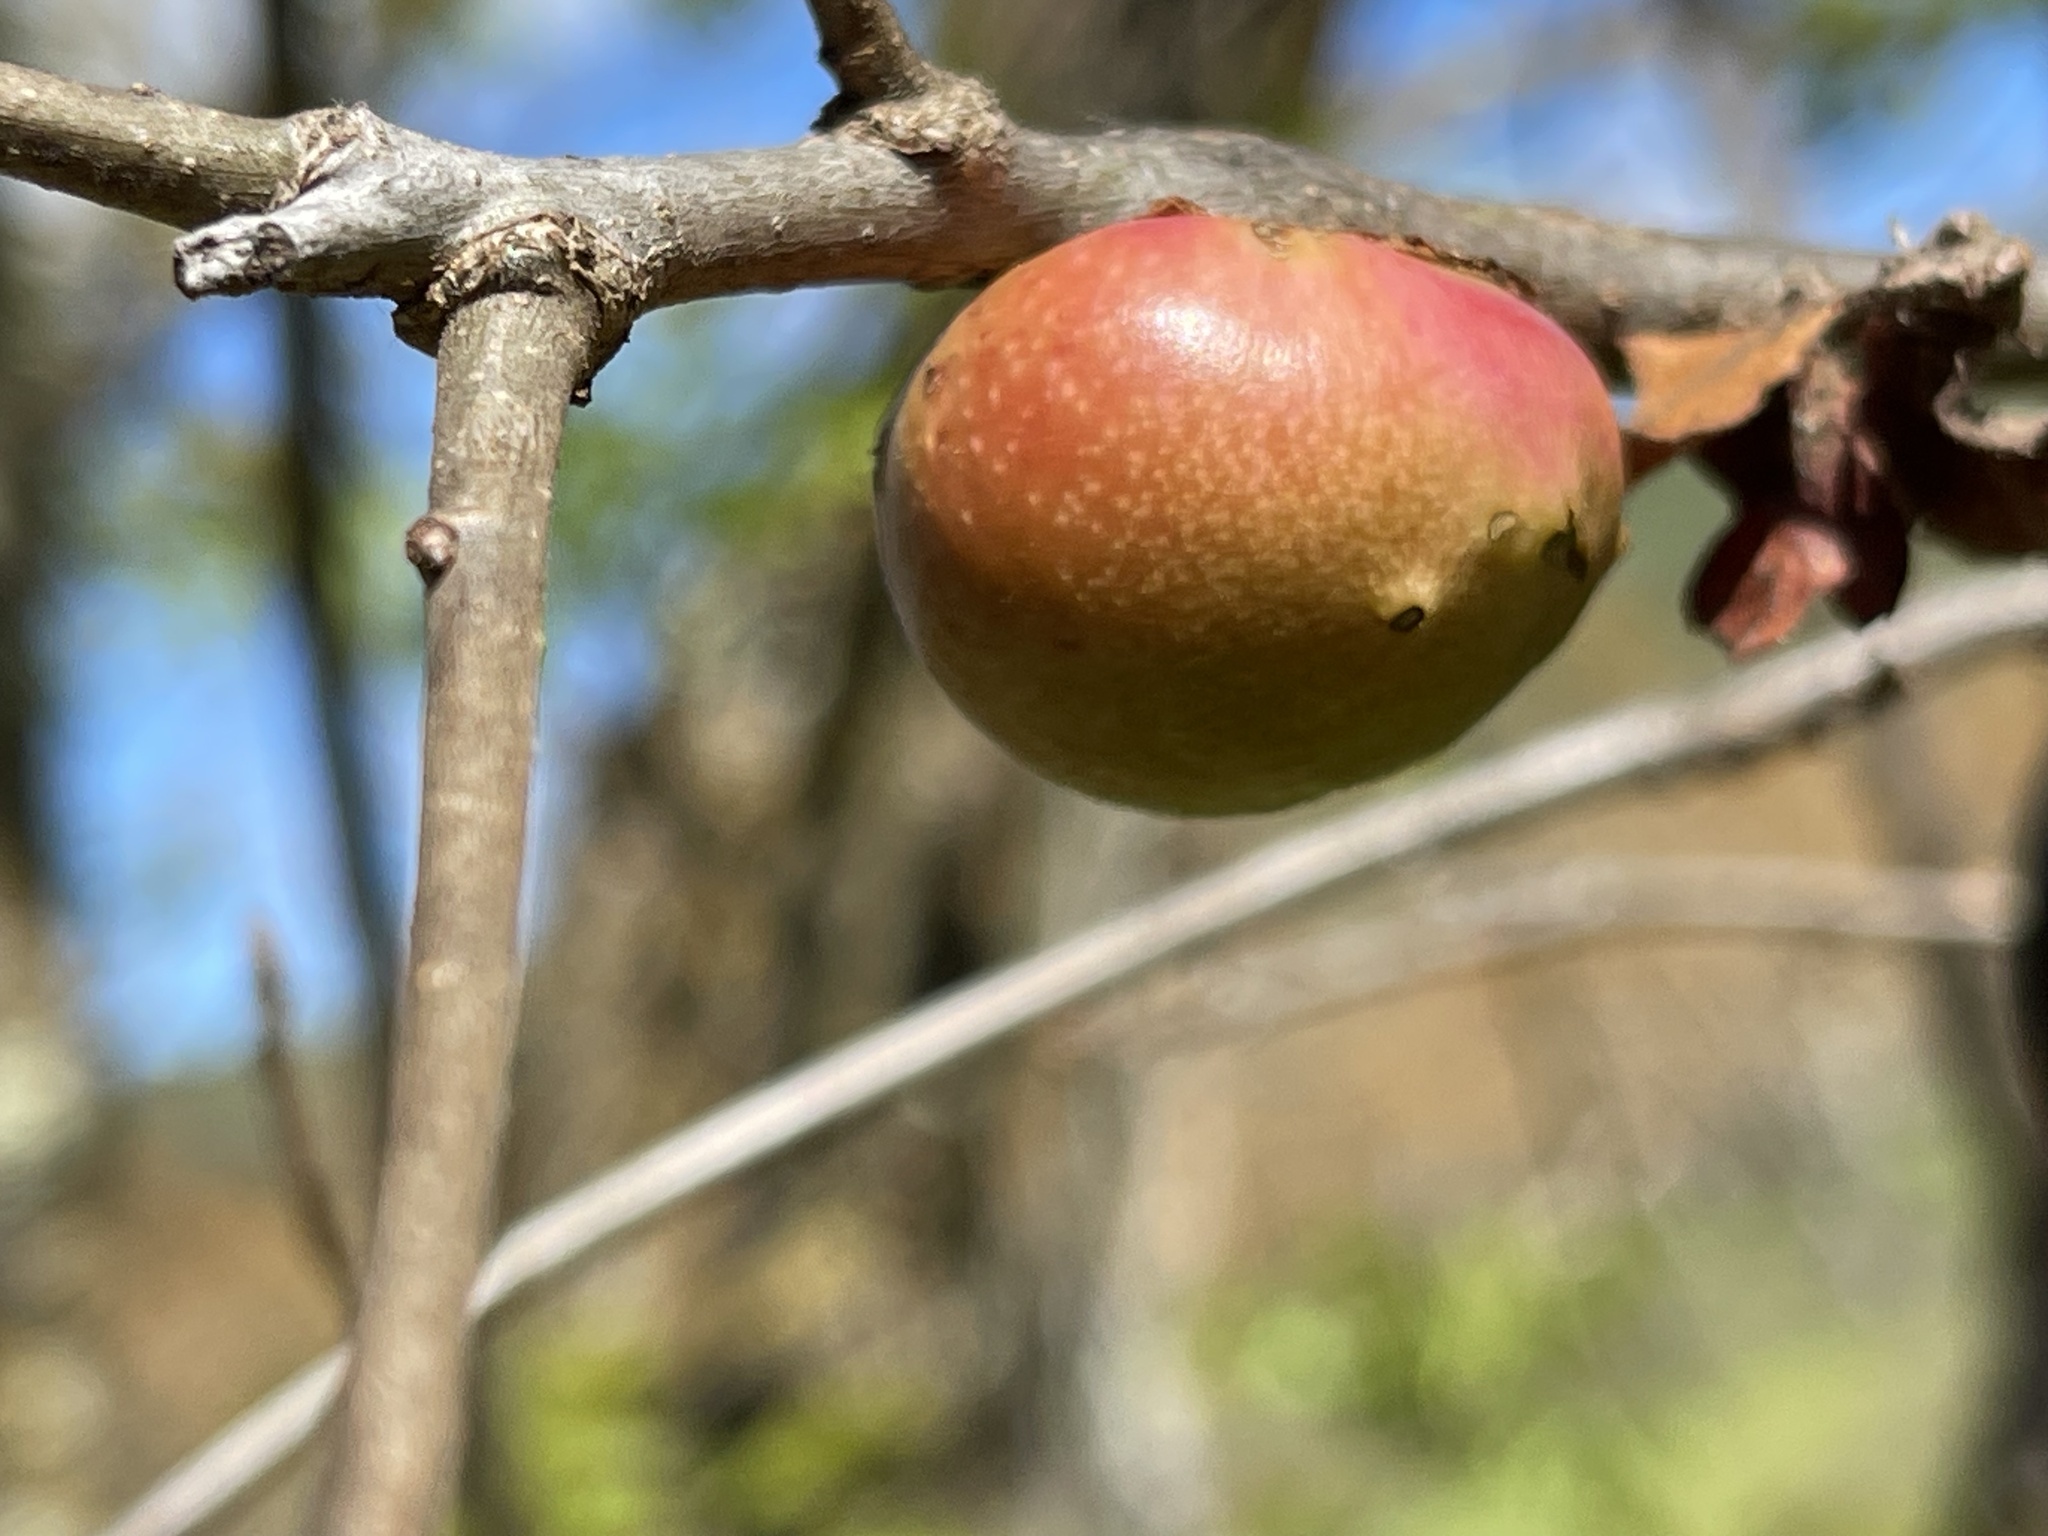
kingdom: Animalia
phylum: Arthropoda
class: Insecta
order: Hymenoptera
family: Cynipidae
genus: Andricus
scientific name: Andricus quercuscalifornicus
